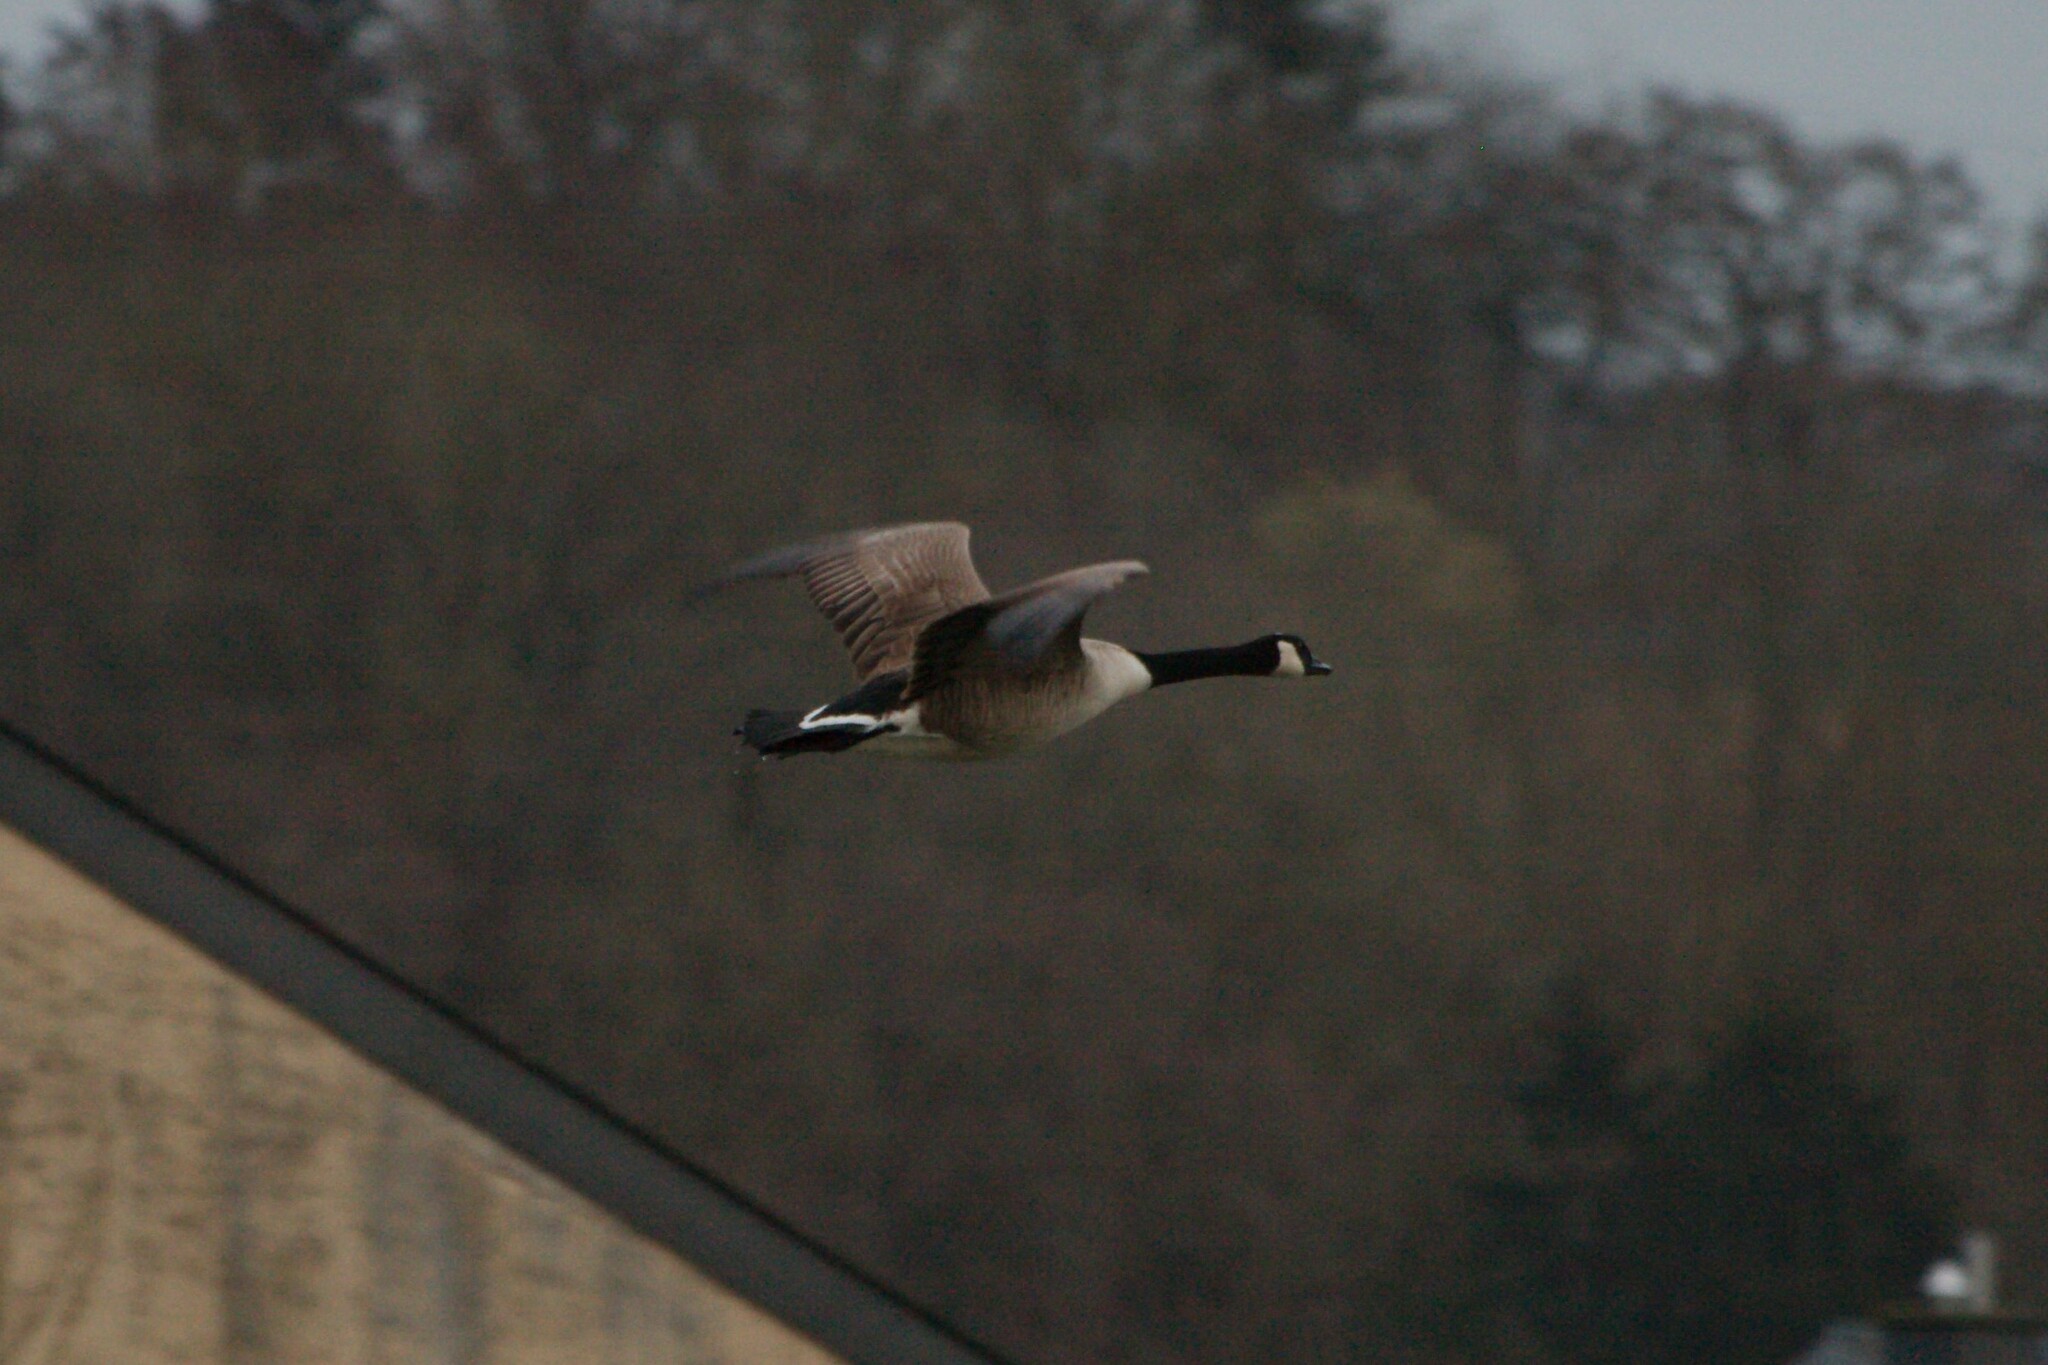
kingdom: Animalia
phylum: Chordata
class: Aves
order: Anseriformes
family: Anatidae
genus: Branta
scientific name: Branta canadensis
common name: Canada goose
